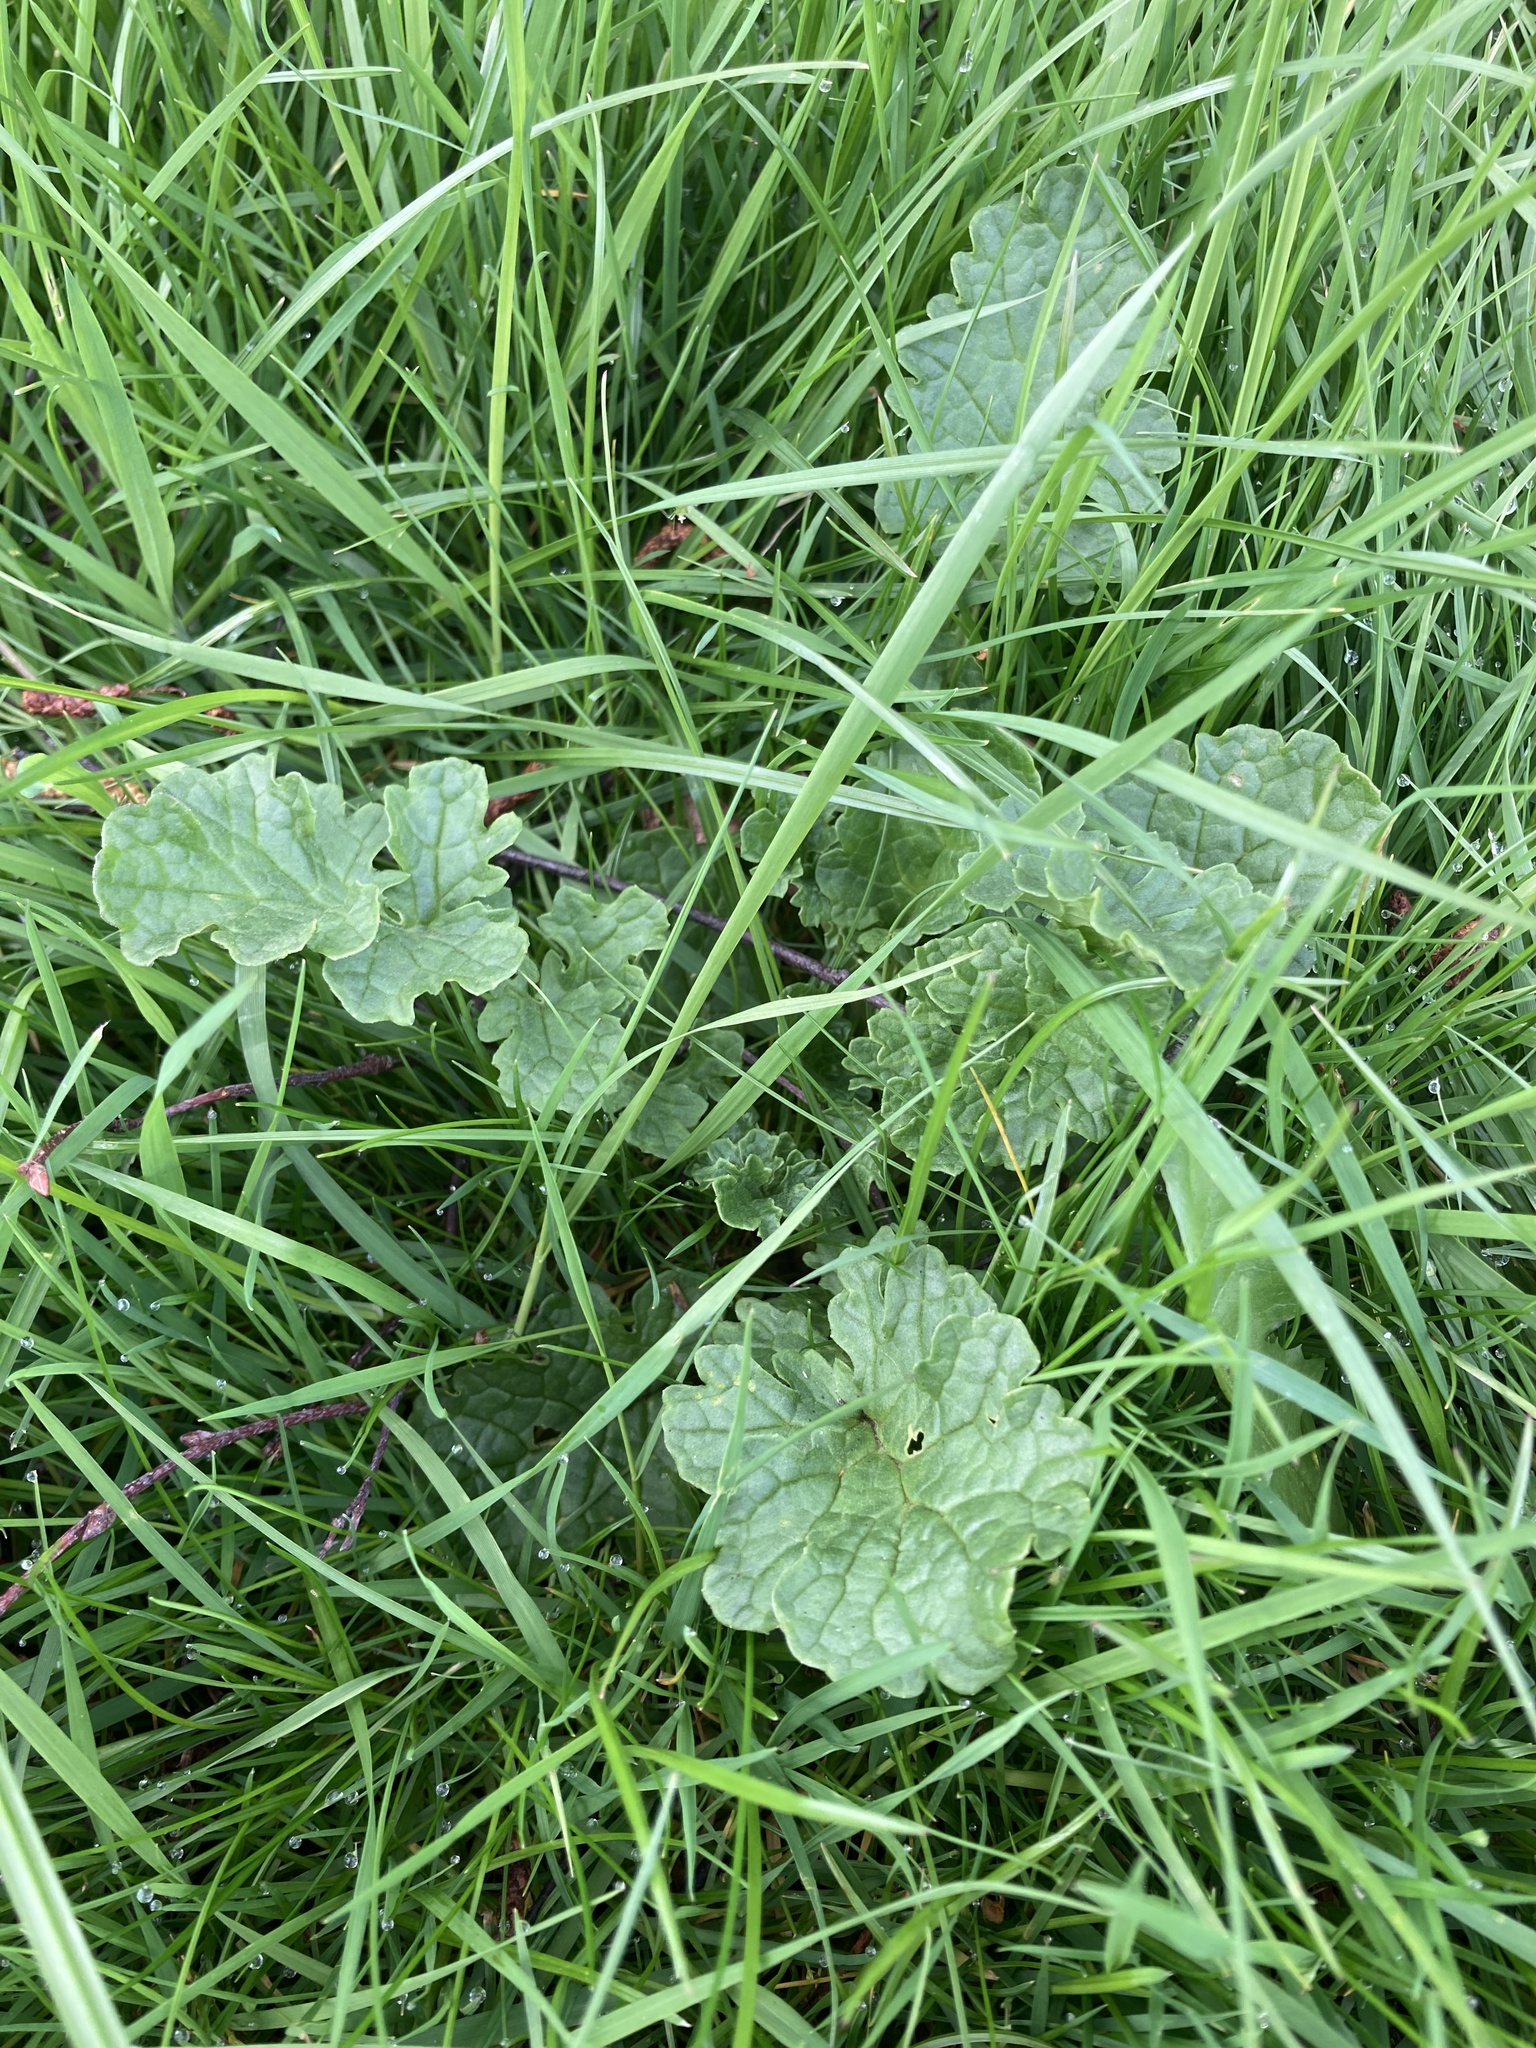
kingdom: Plantae
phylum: Tracheophyta
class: Magnoliopsida
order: Asterales
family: Asteraceae
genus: Jacobaea
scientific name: Jacobaea vulgaris
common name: Stinking willie
